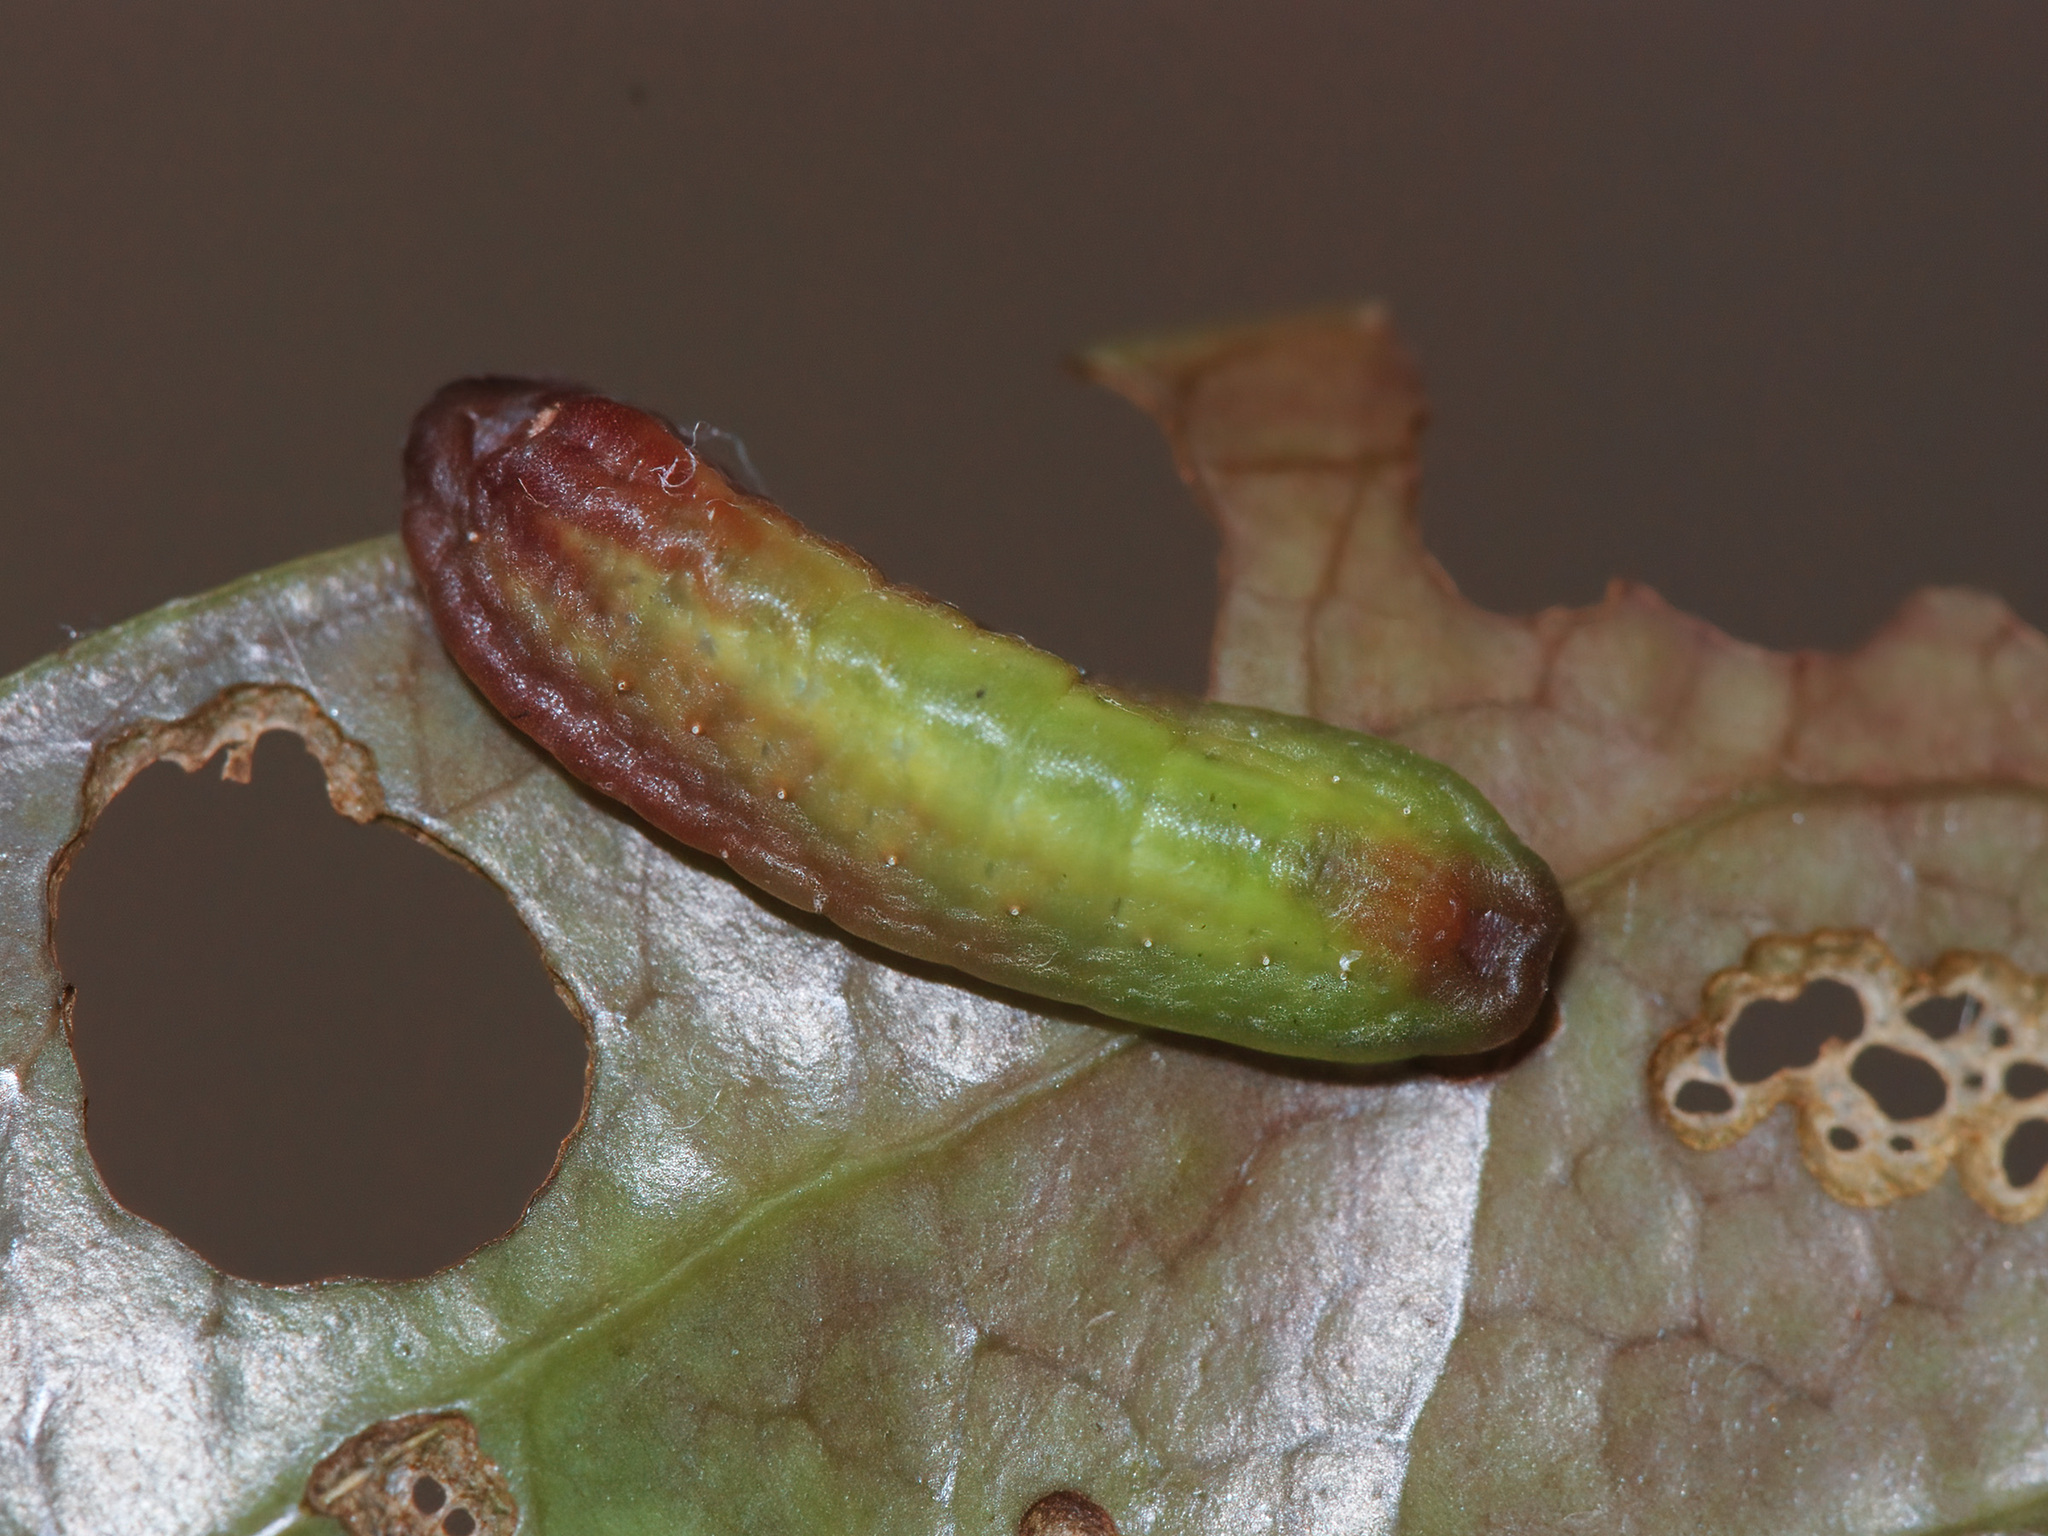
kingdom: Animalia
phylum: Arthropoda
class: Insecta
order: Lepidoptera
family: Lycaenidae
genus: Eooxylides
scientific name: Eooxylides tharis
